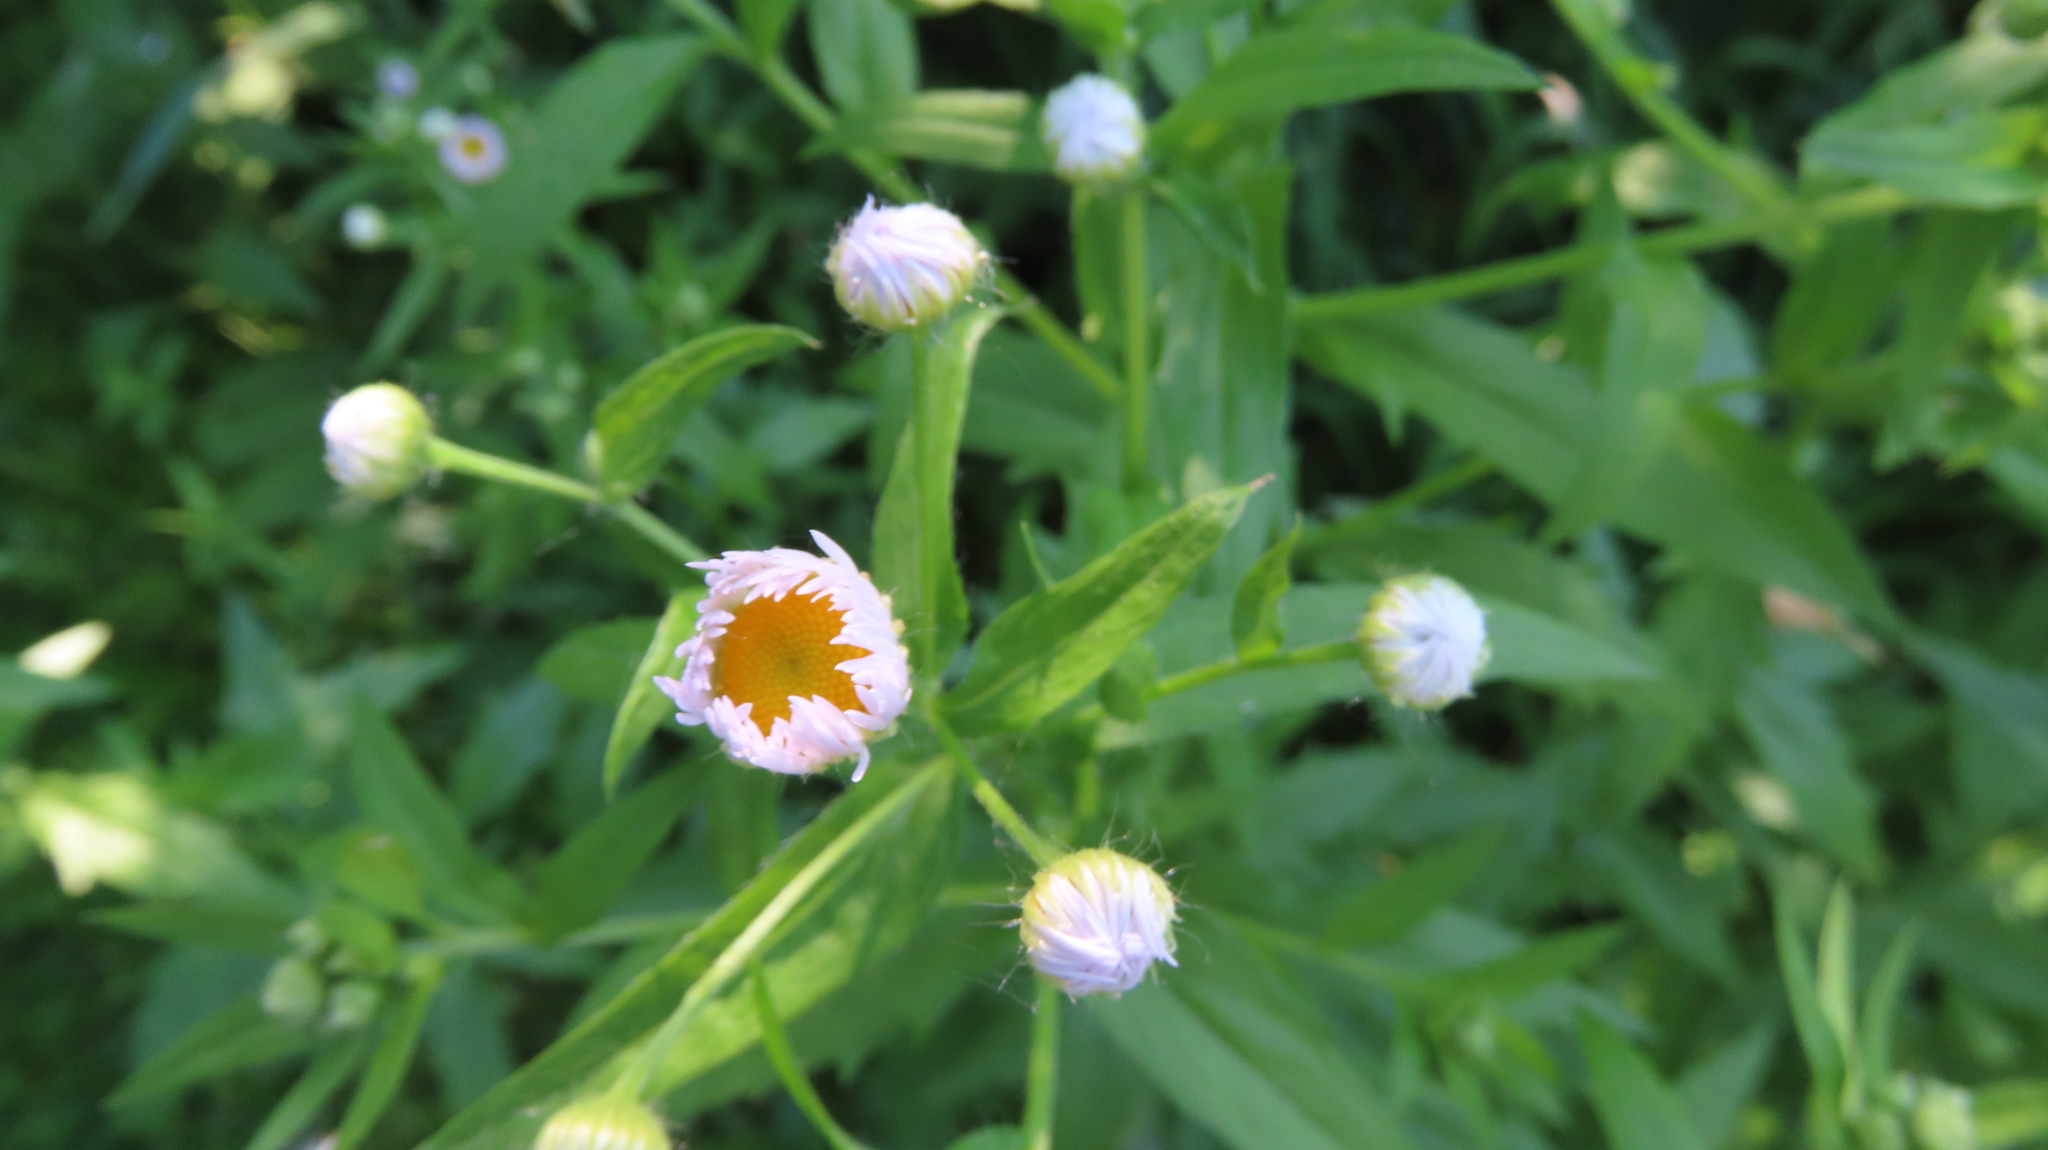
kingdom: Plantae
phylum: Tracheophyta
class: Magnoliopsida
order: Asterales
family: Asteraceae
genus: Erigeron
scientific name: Erigeron annuus
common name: Tall fleabane
